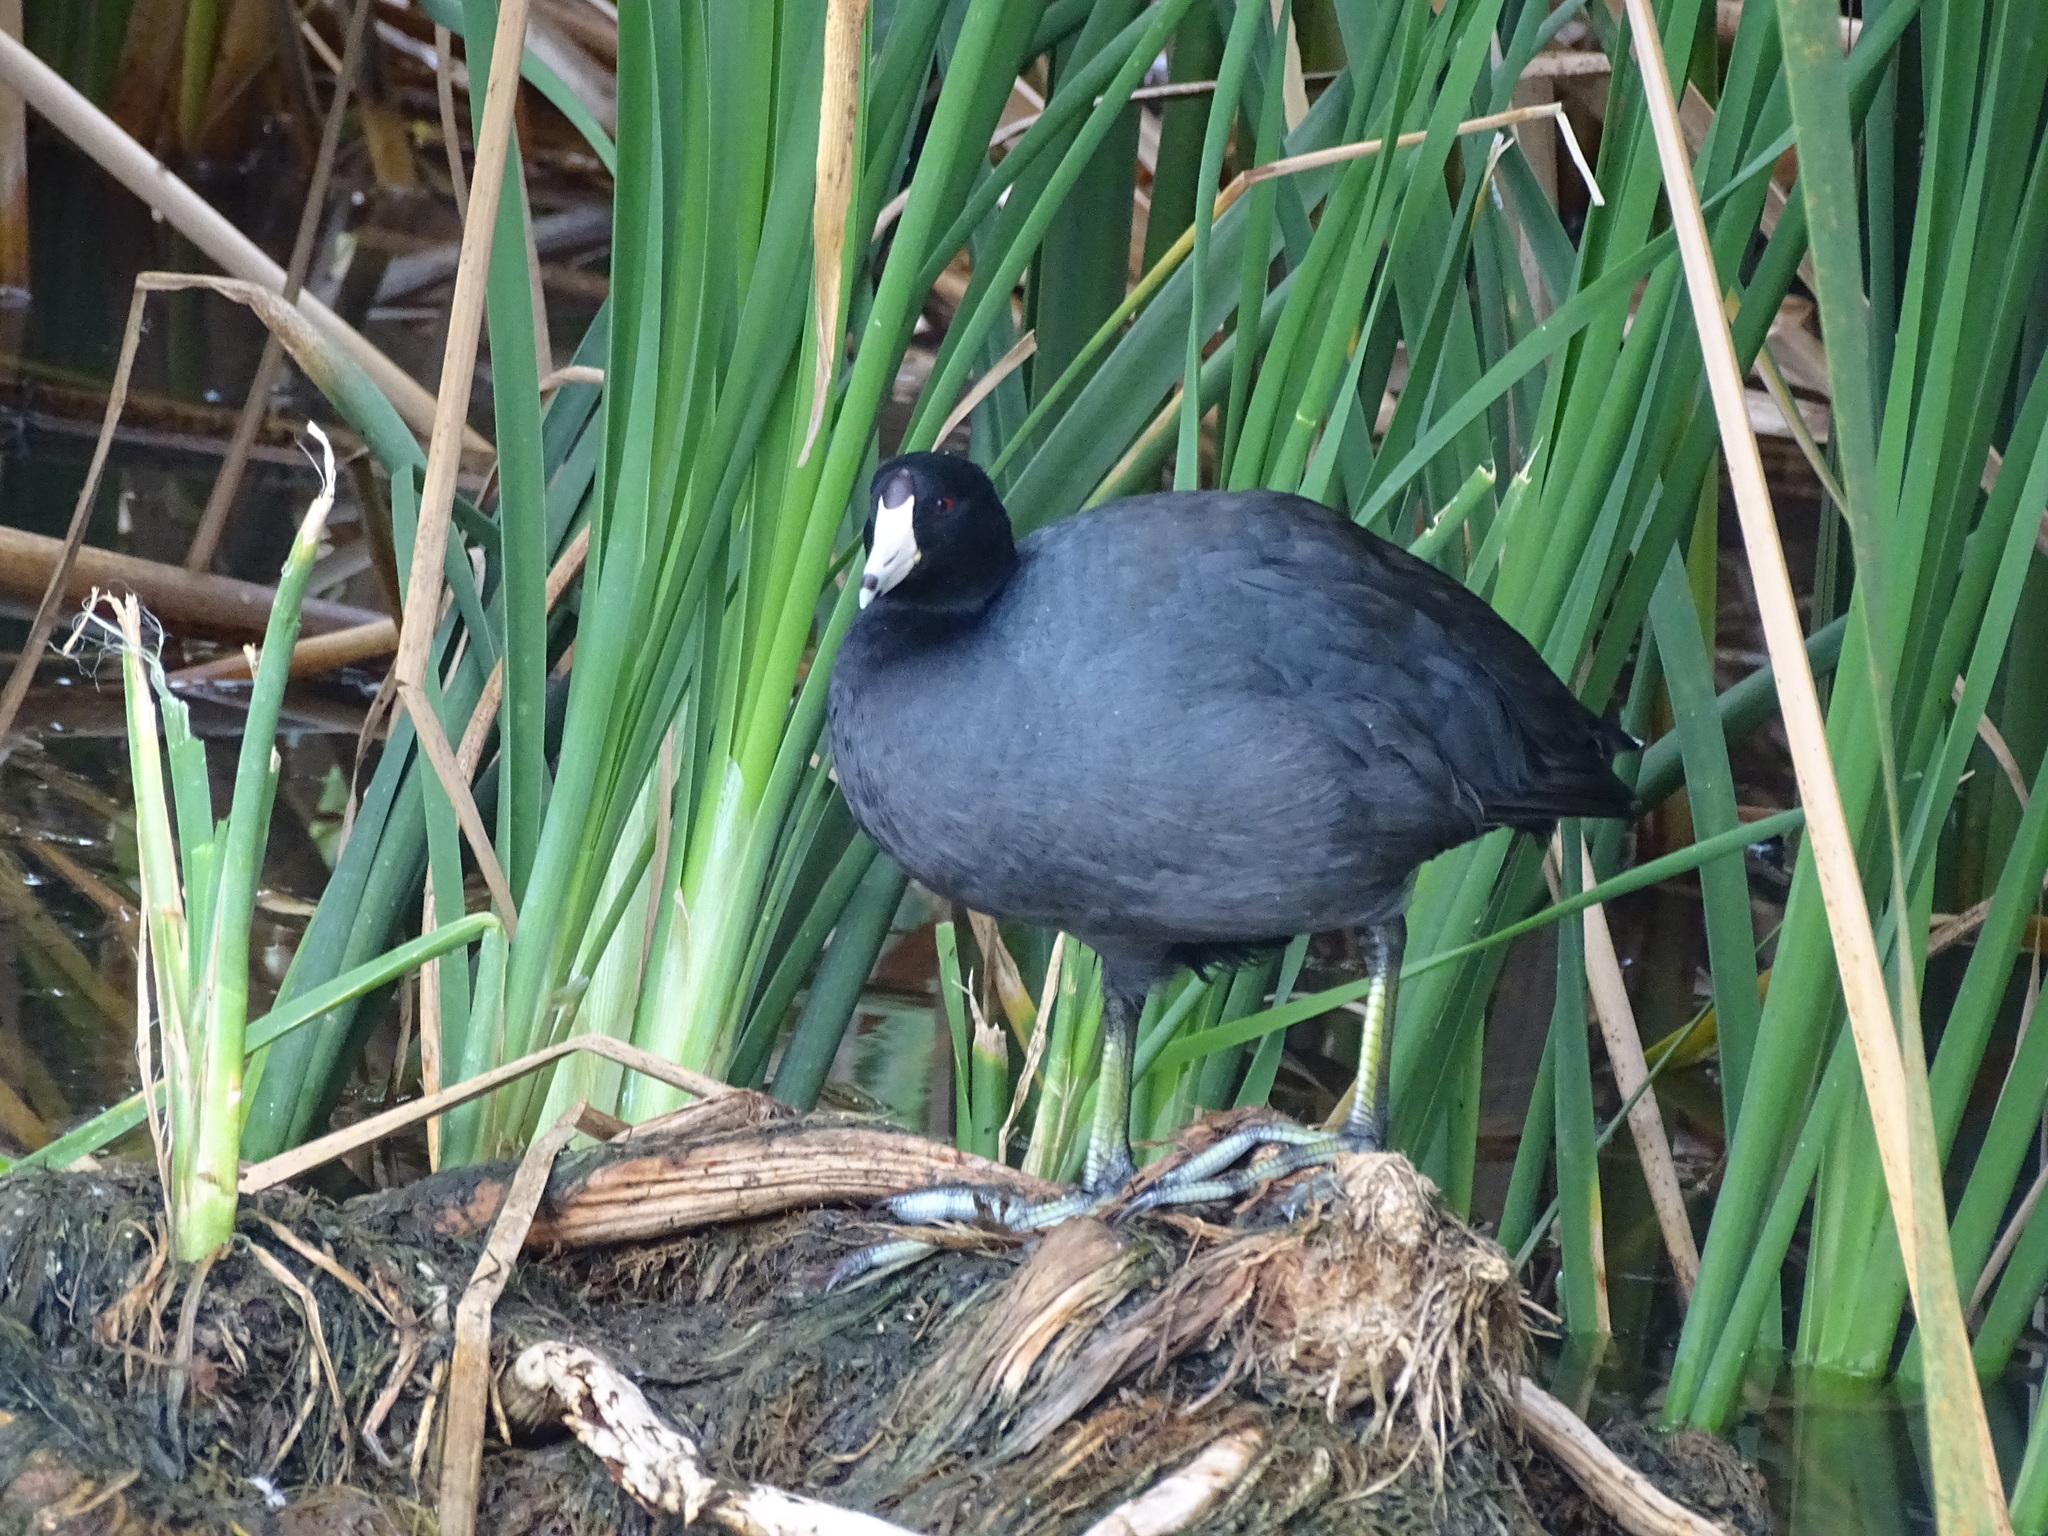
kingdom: Animalia
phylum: Chordata
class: Aves
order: Gruiformes
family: Rallidae
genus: Fulica
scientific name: Fulica americana
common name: American coot
